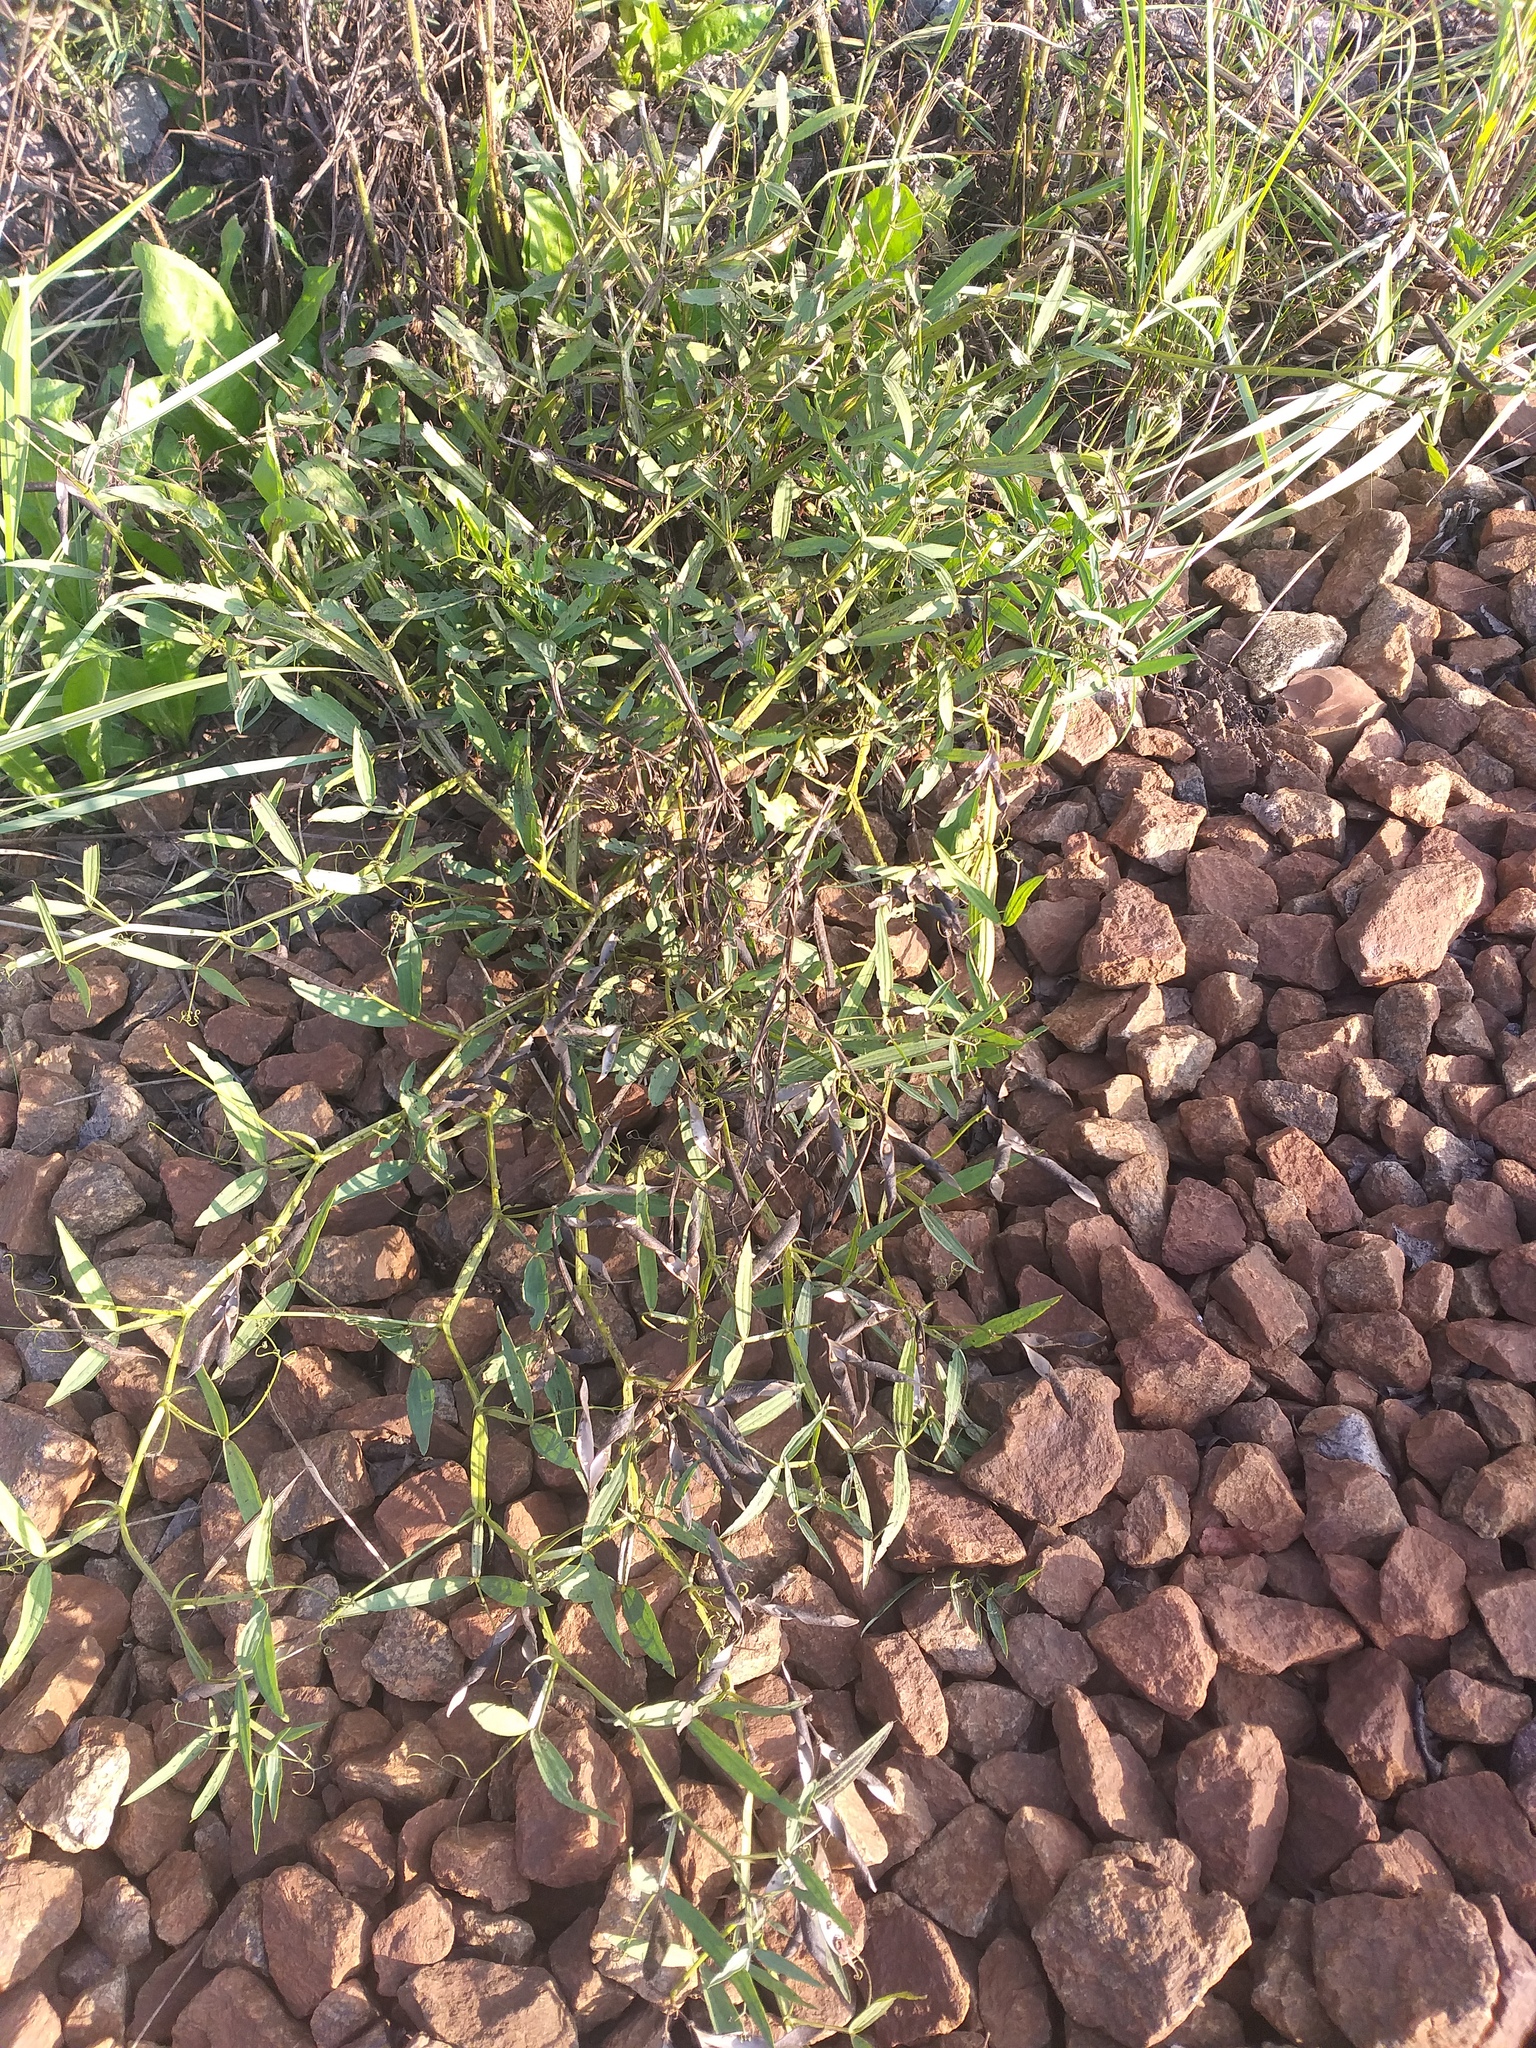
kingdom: Plantae
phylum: Tracheophyta
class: Magnoliopsida
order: Fabales
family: Fabaceae
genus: Lathyrus
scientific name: Lathyrus sylvestris
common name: Flat pea
